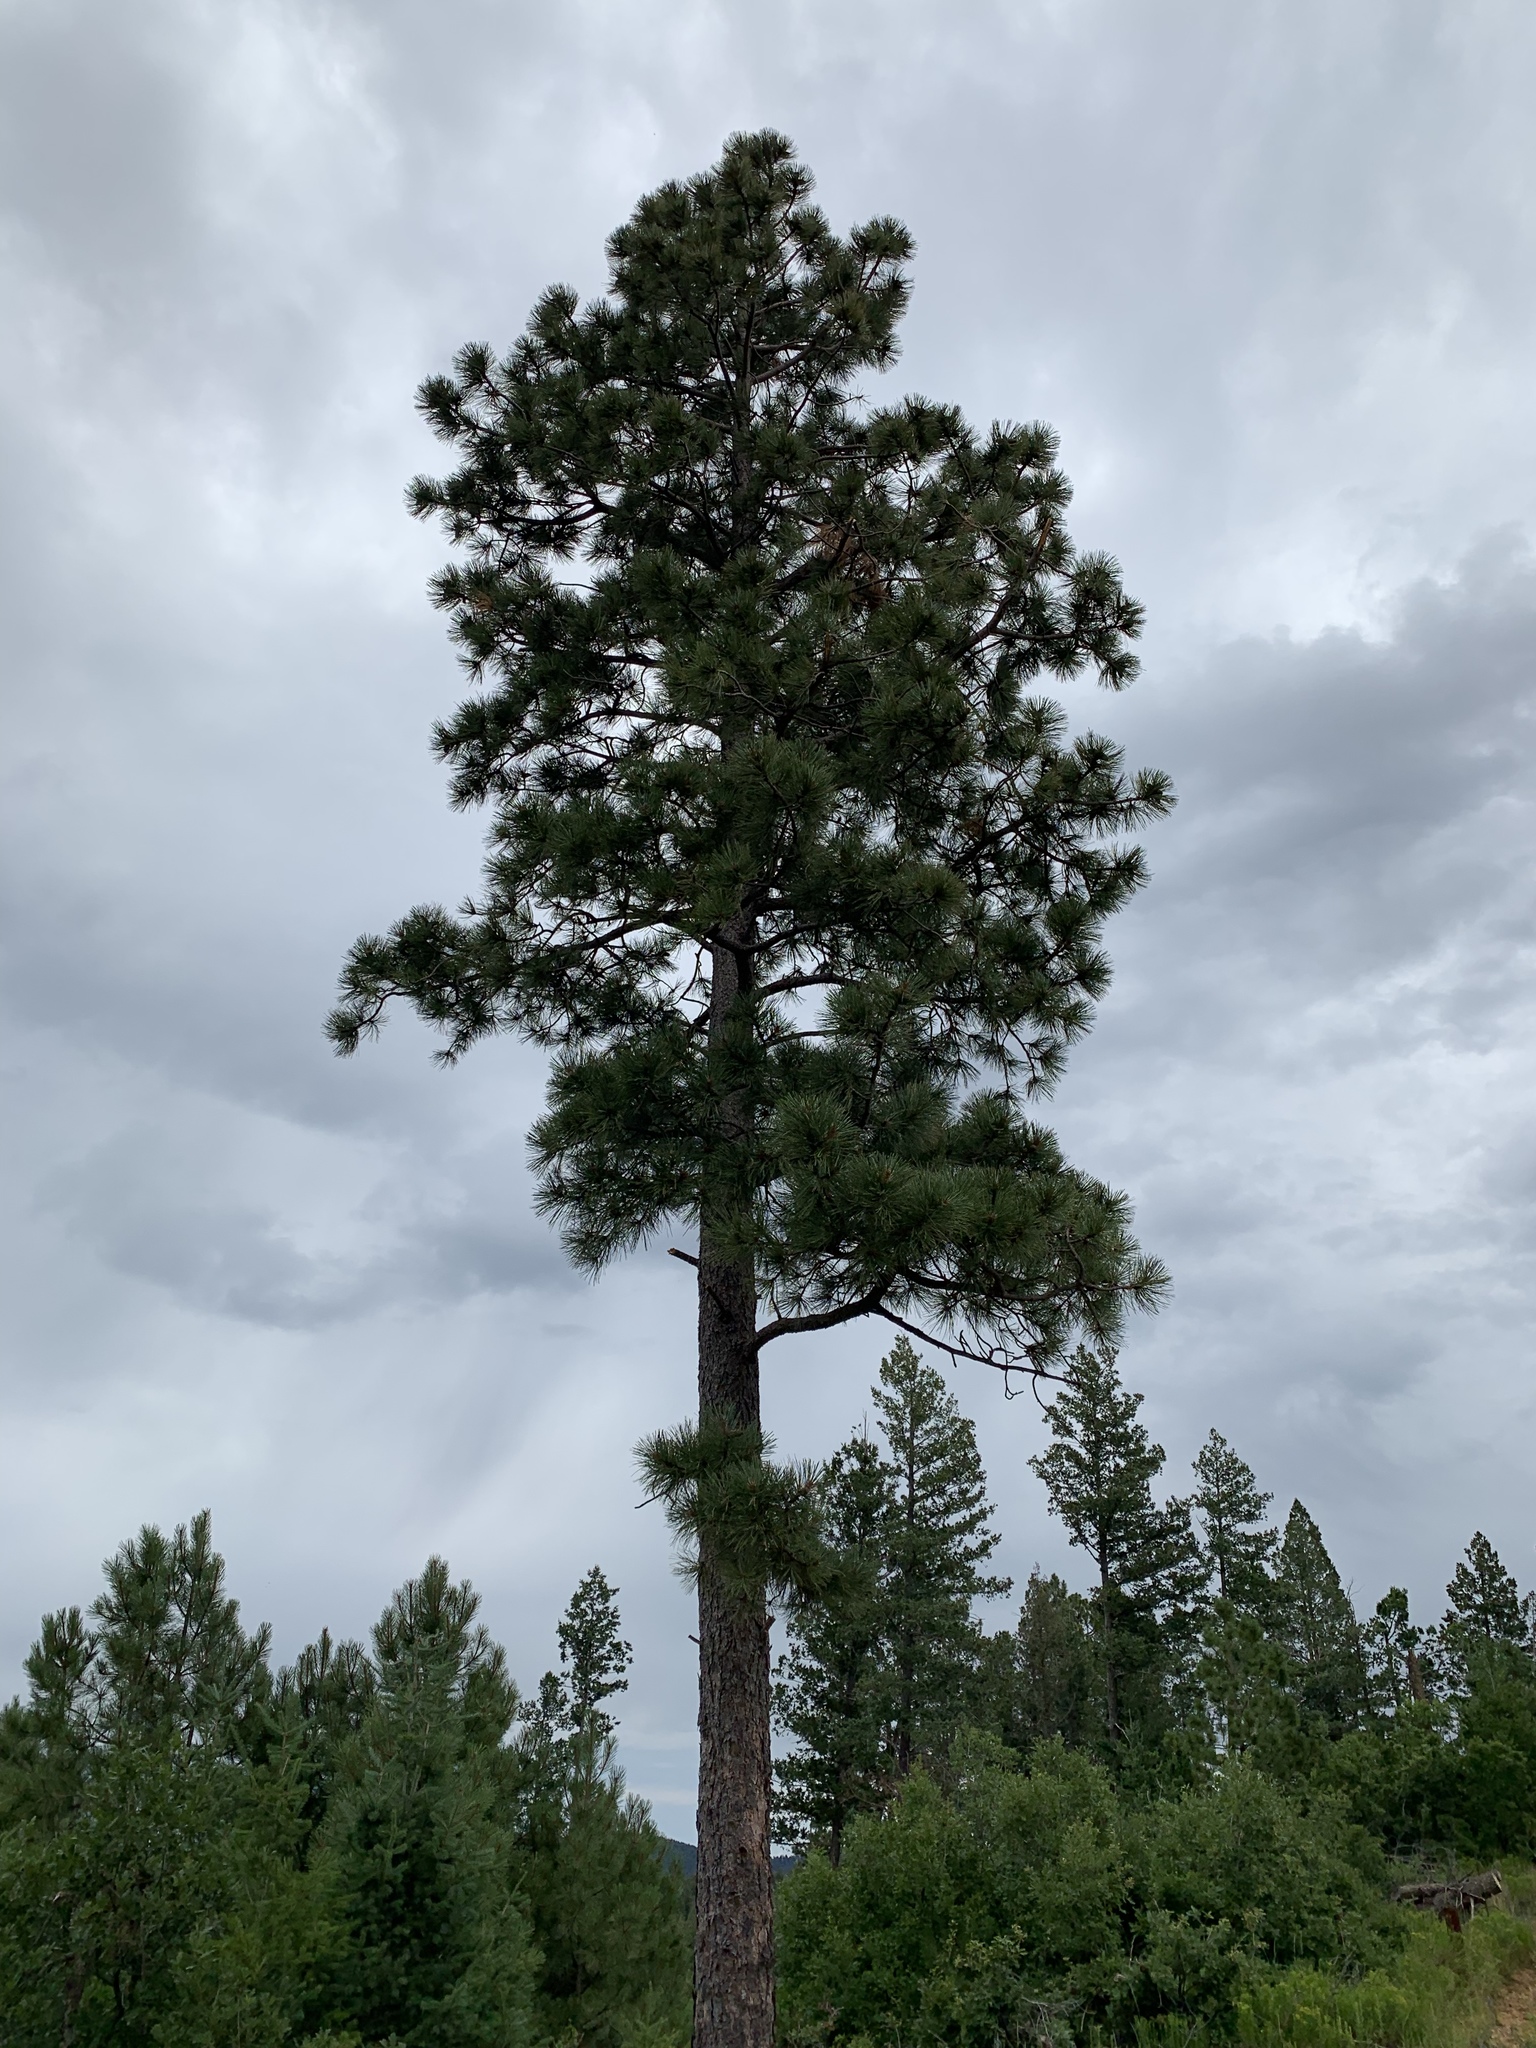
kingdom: Plantae
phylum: Tracheophyta
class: Pinopsida
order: Pinales
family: Pinaceae
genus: Pinus
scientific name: Pinus ponderosa
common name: Western yellow-pine
